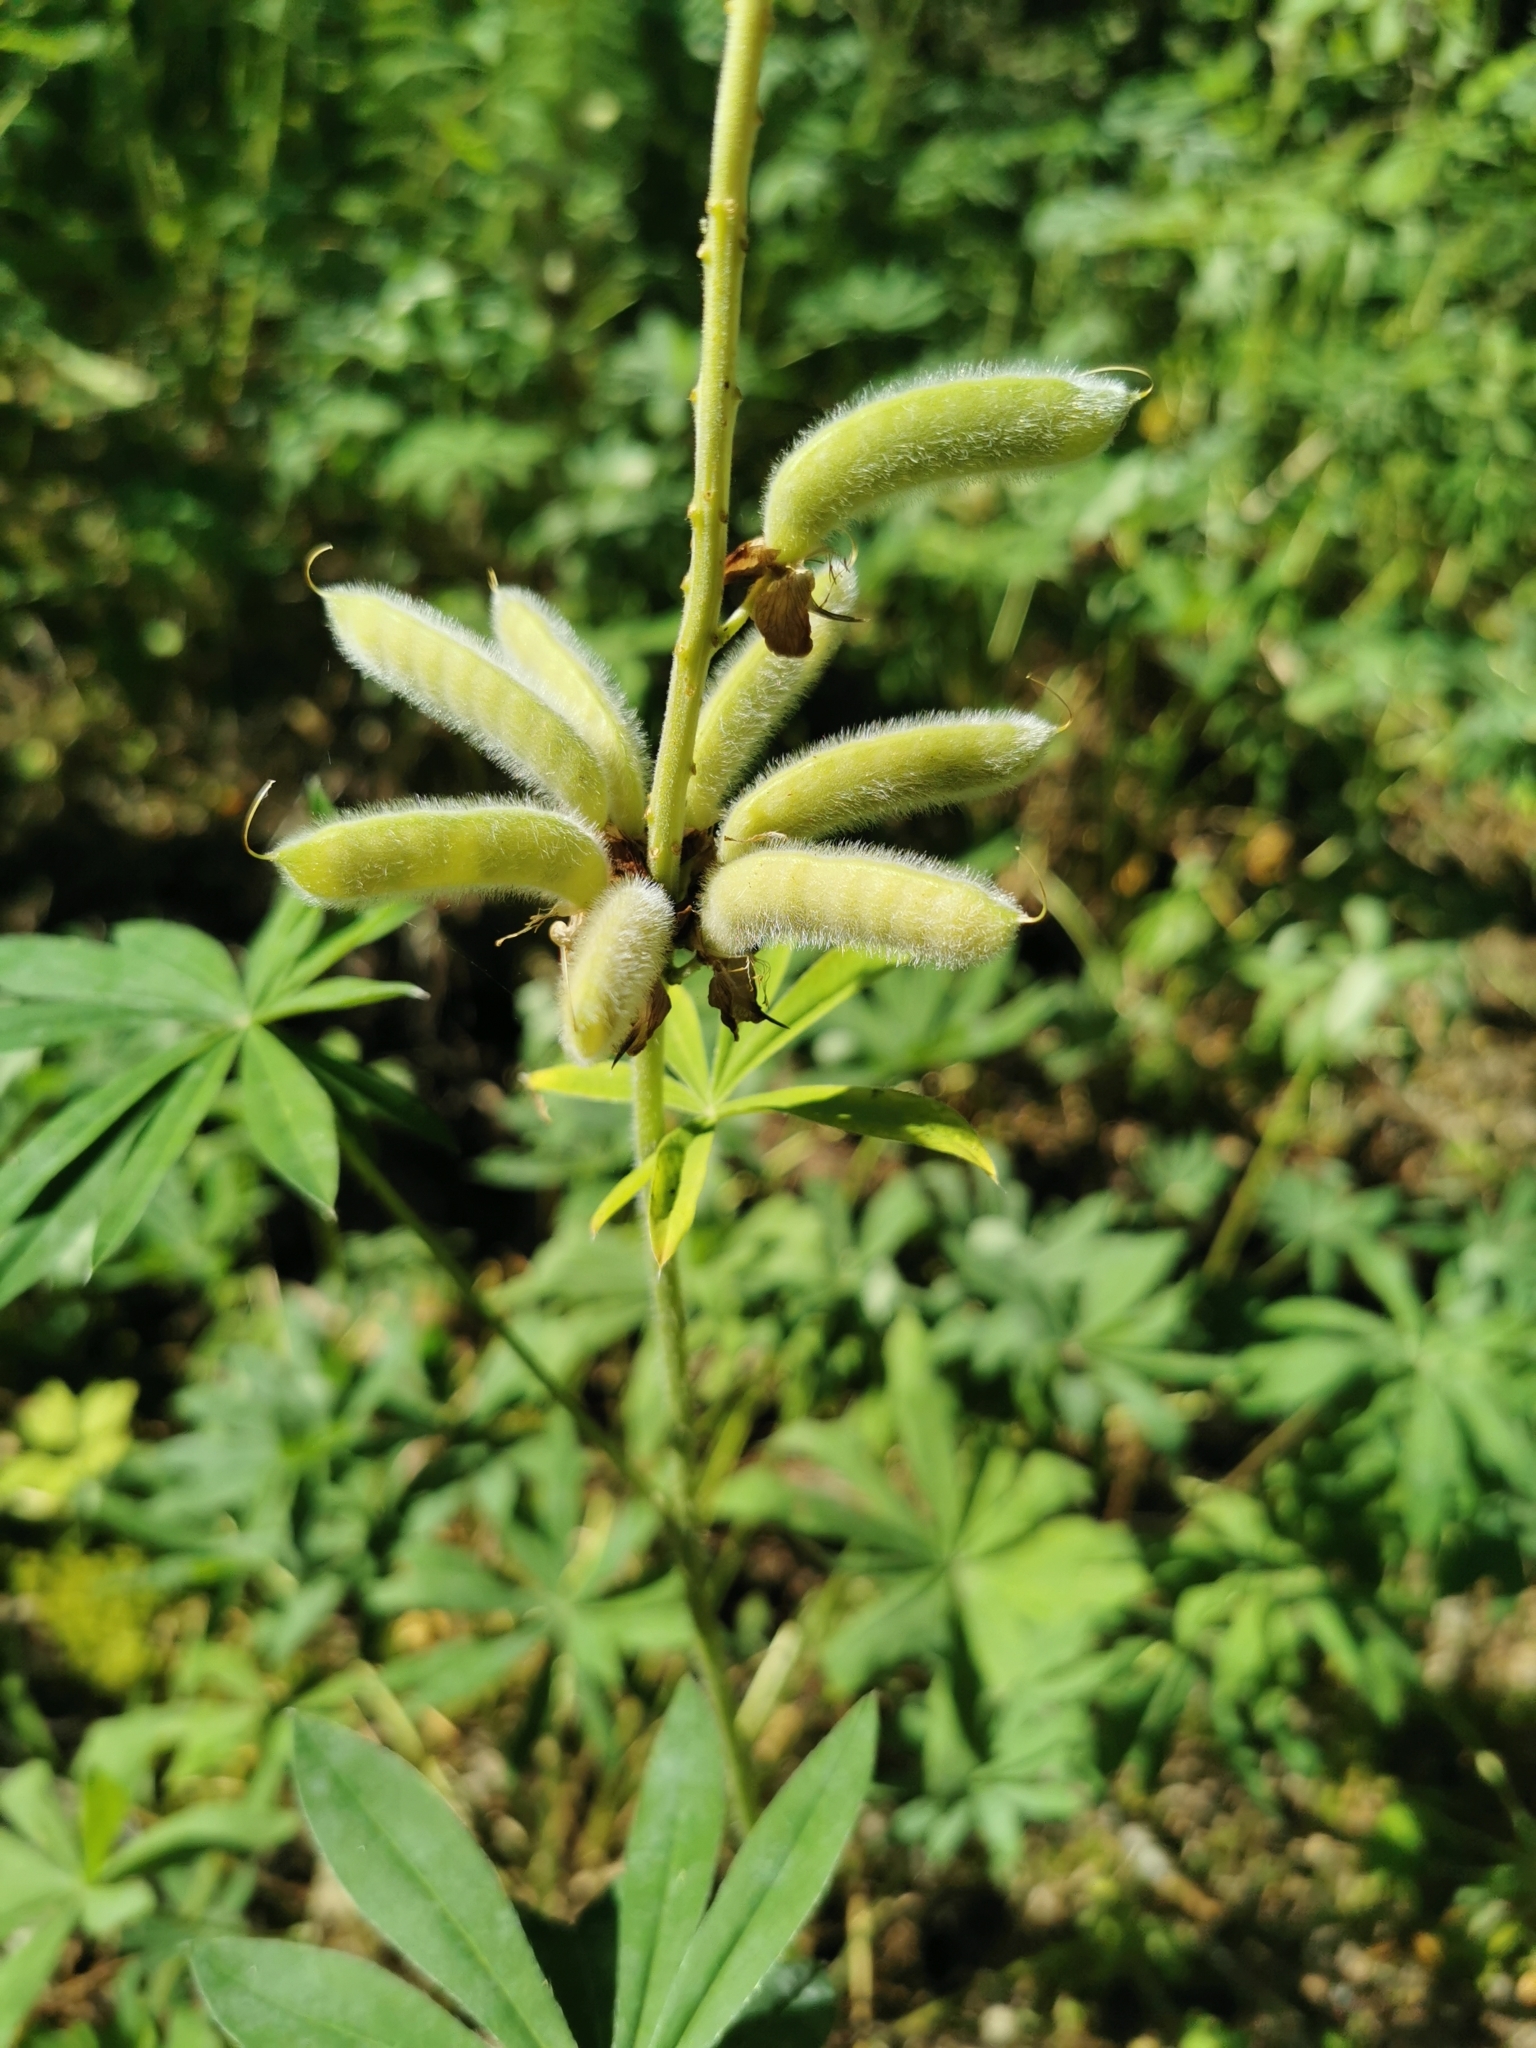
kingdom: Plantae
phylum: Tracheophyta
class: Magnoliopsida
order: Fabales
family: Fabaceae
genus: Lupinus
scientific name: Lupinus polyphyllus
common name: Garden lupin
